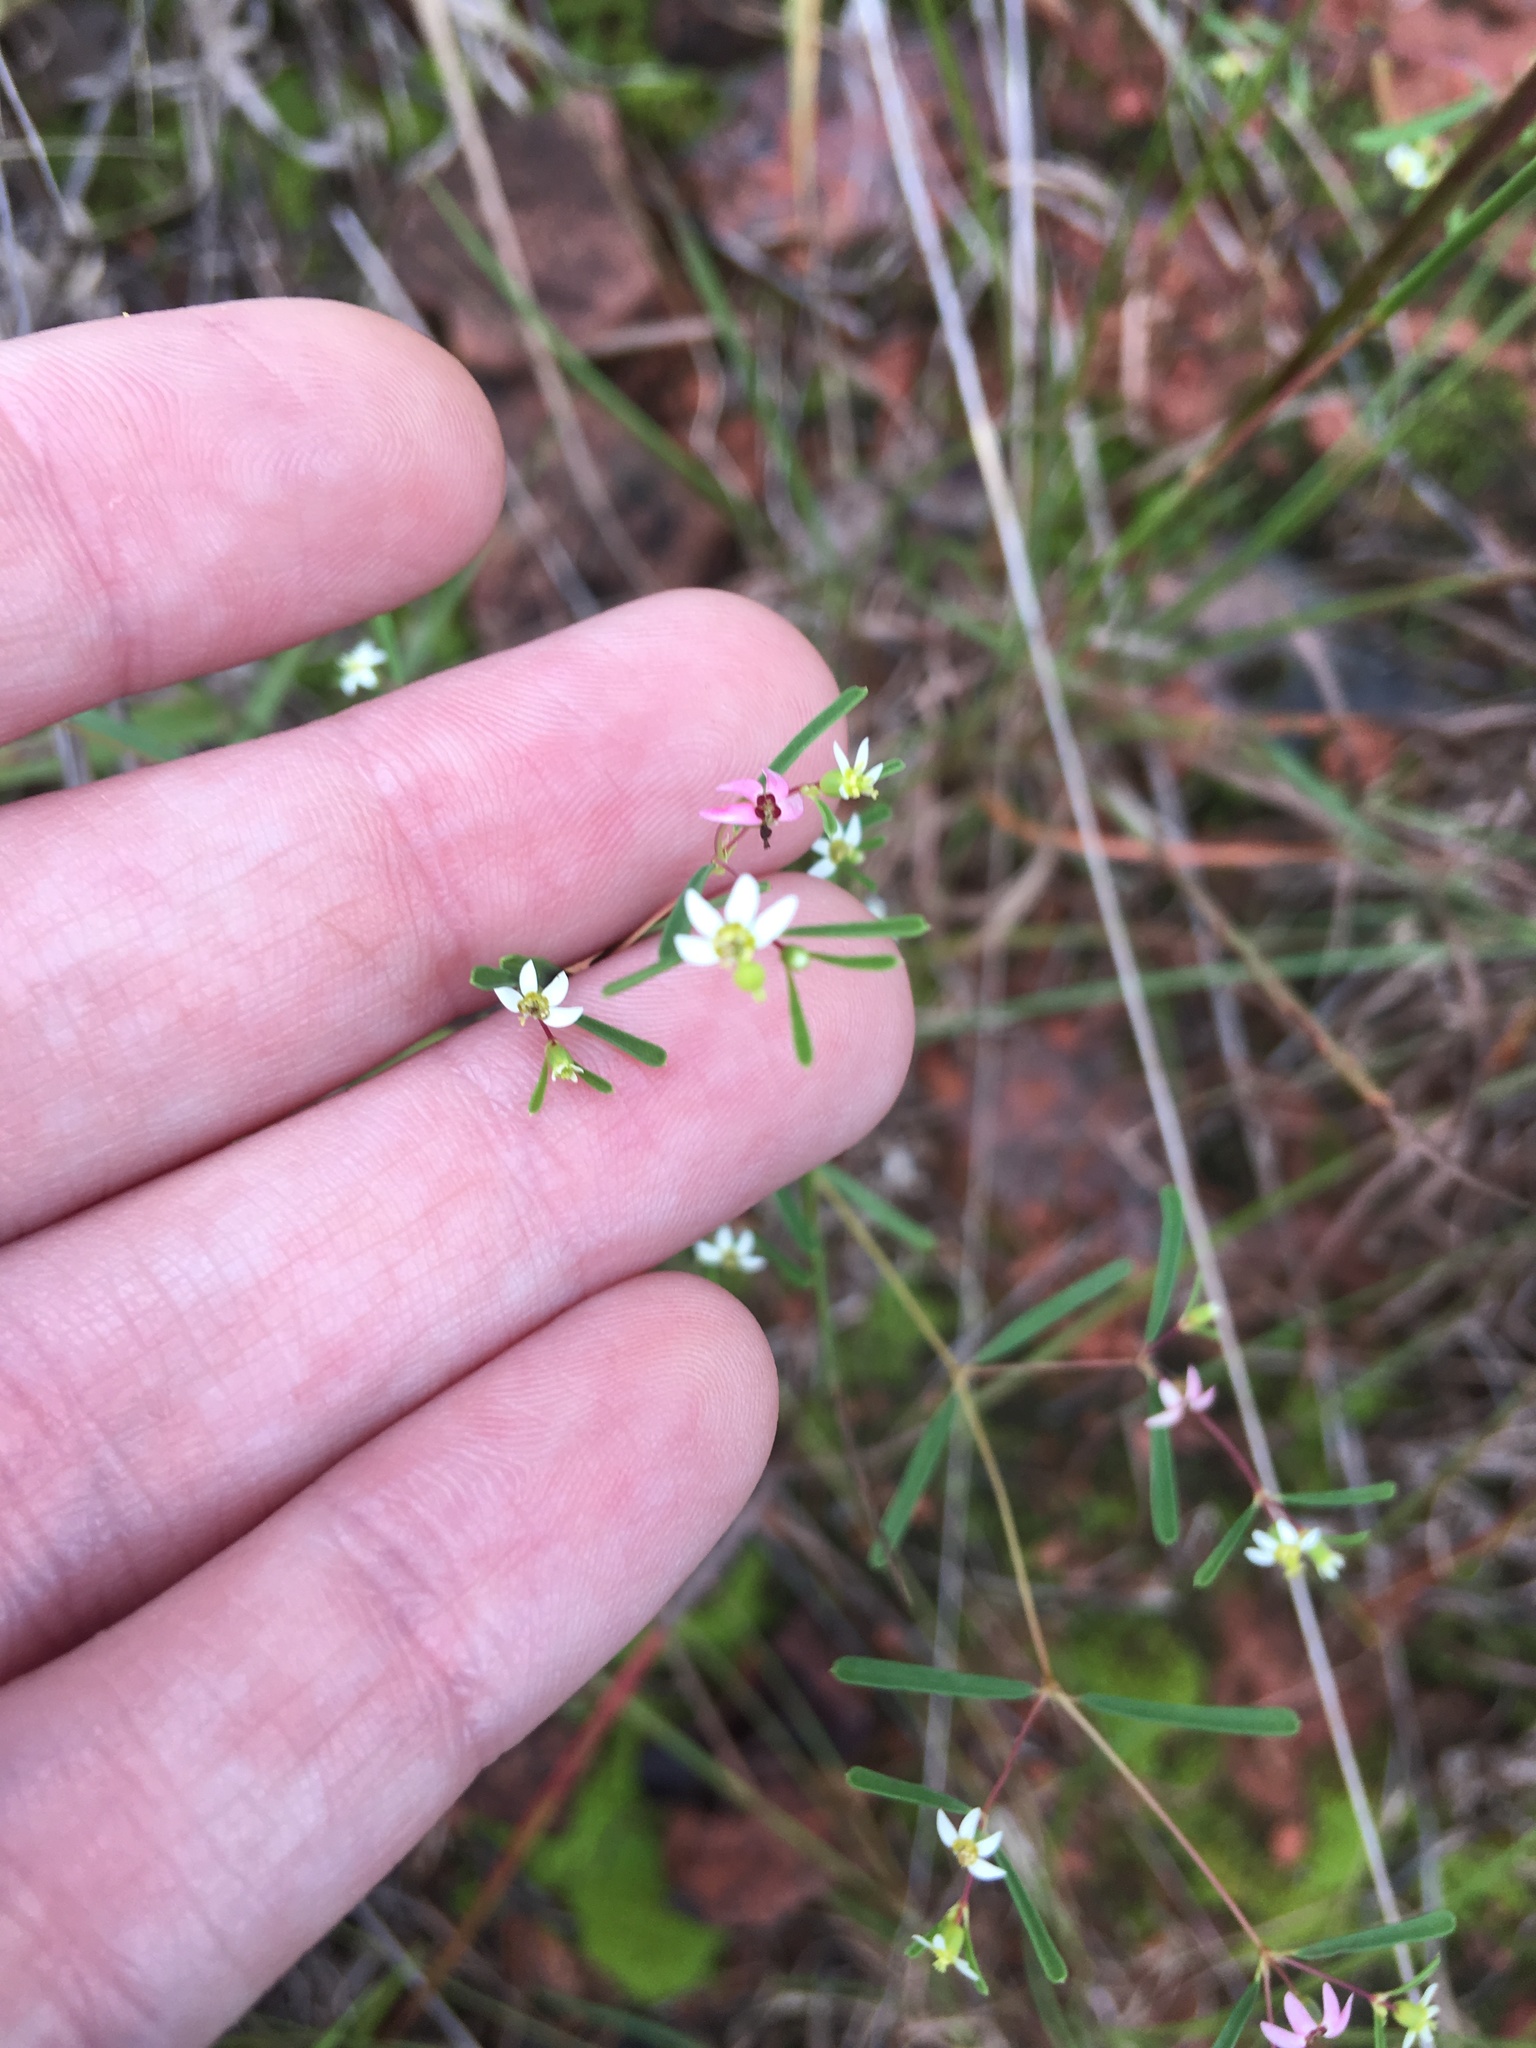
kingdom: Plantae
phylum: Tracheophyta
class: Magnoliopsida
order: Malpighiales
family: Euphorbiaceae
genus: Euphorbia
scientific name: Euphorbia missurica
